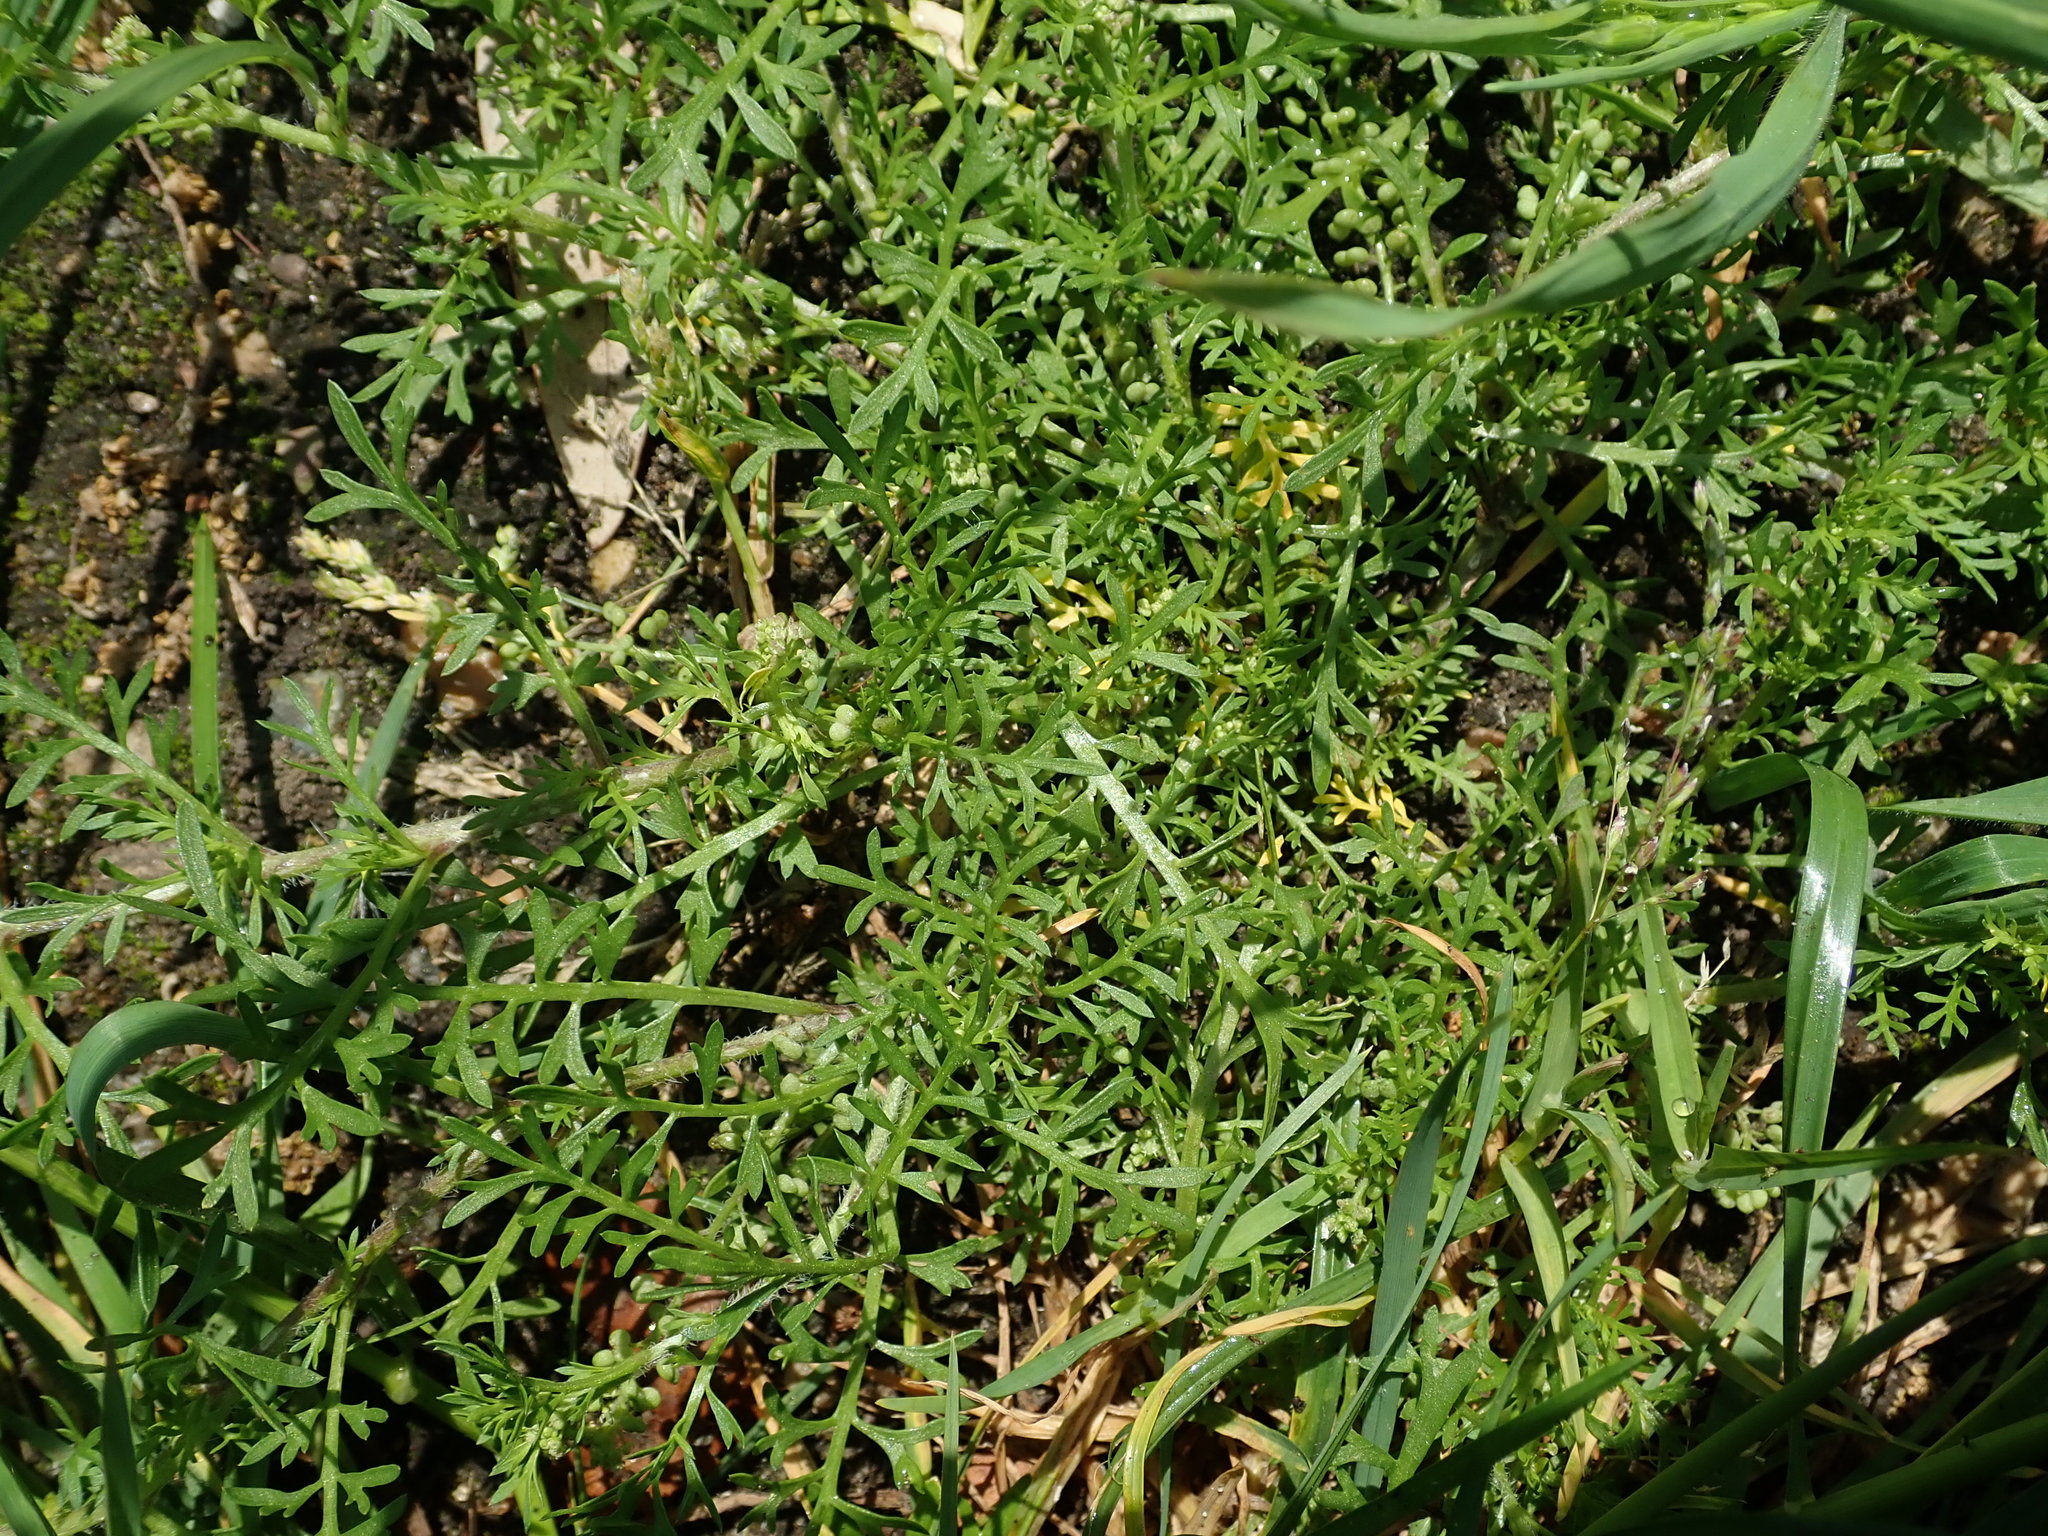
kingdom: Plantae
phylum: Tracheophyta
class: Magnoliopsida
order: Brassicales
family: Brassicaceae
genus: Lepidium
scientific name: Lepidium didymum
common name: Lesser swinecress
